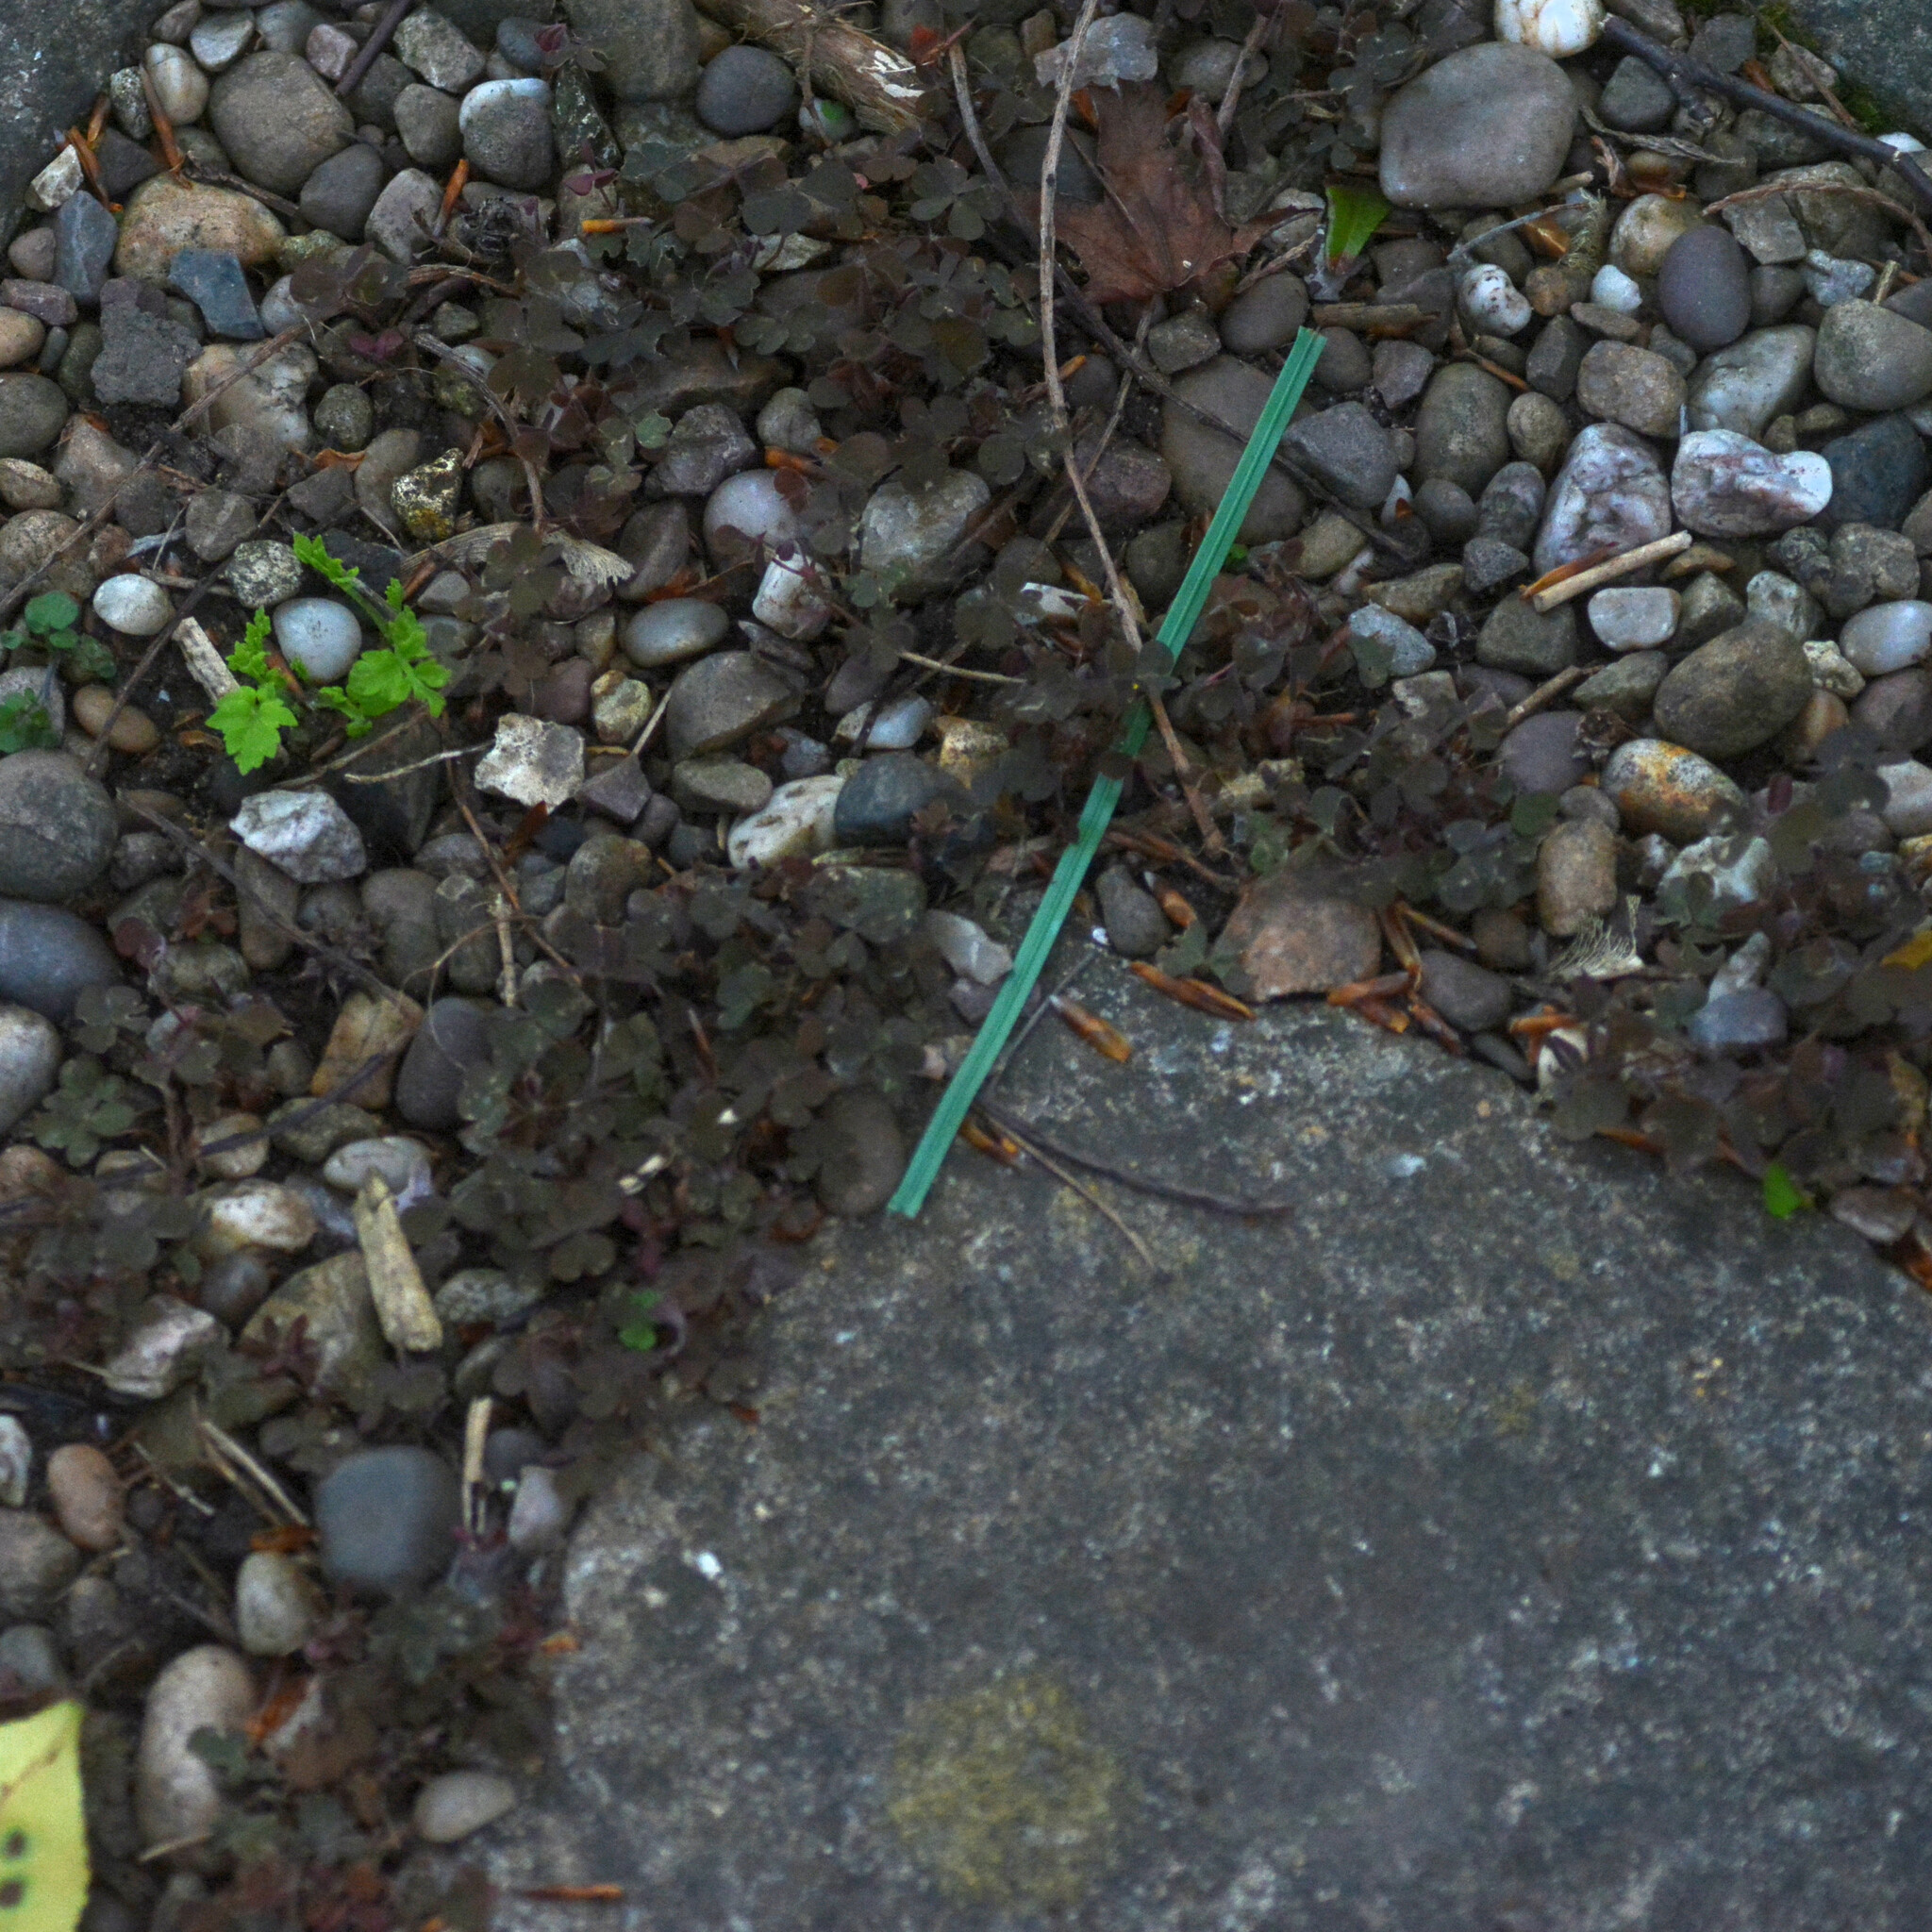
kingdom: Plantae
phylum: Tracheophyta
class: Magnoliopsida
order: Oxalidales
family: Oxalidaceae
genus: Oxalis
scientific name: Oxalis corniculata
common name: Procumbent yellow-sorrel
